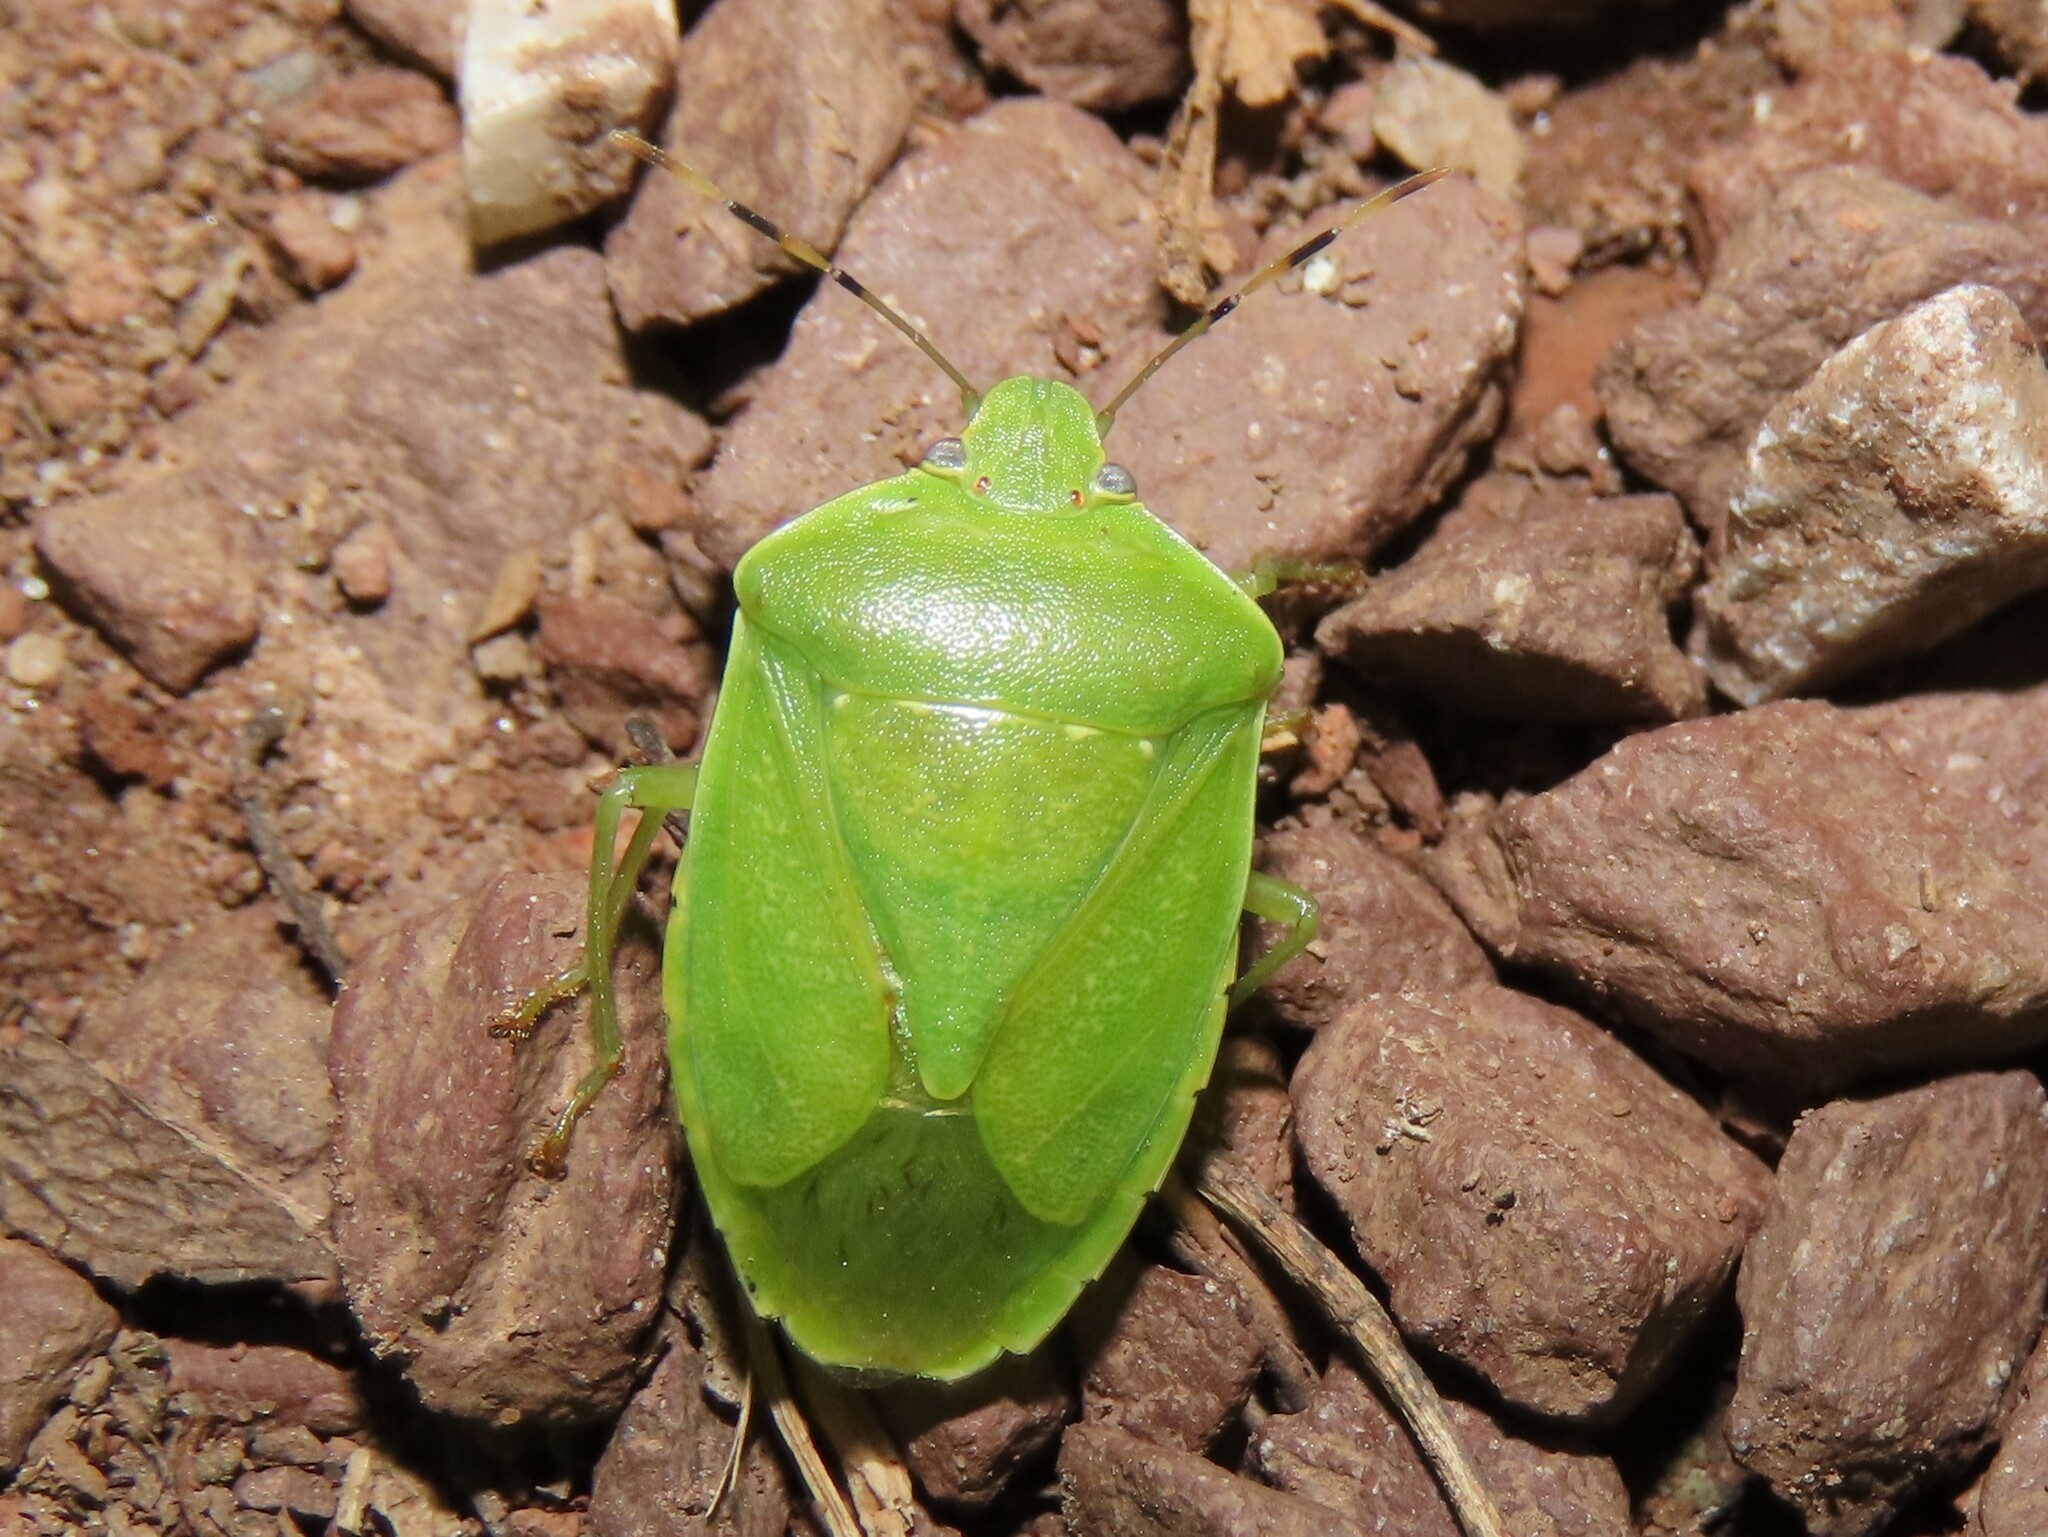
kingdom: Animalia
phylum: Arthropoda
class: Insecta
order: Hemiptera
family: Pentatomidae
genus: Chinavia
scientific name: Chinavia hilaris
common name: Green stink bug
